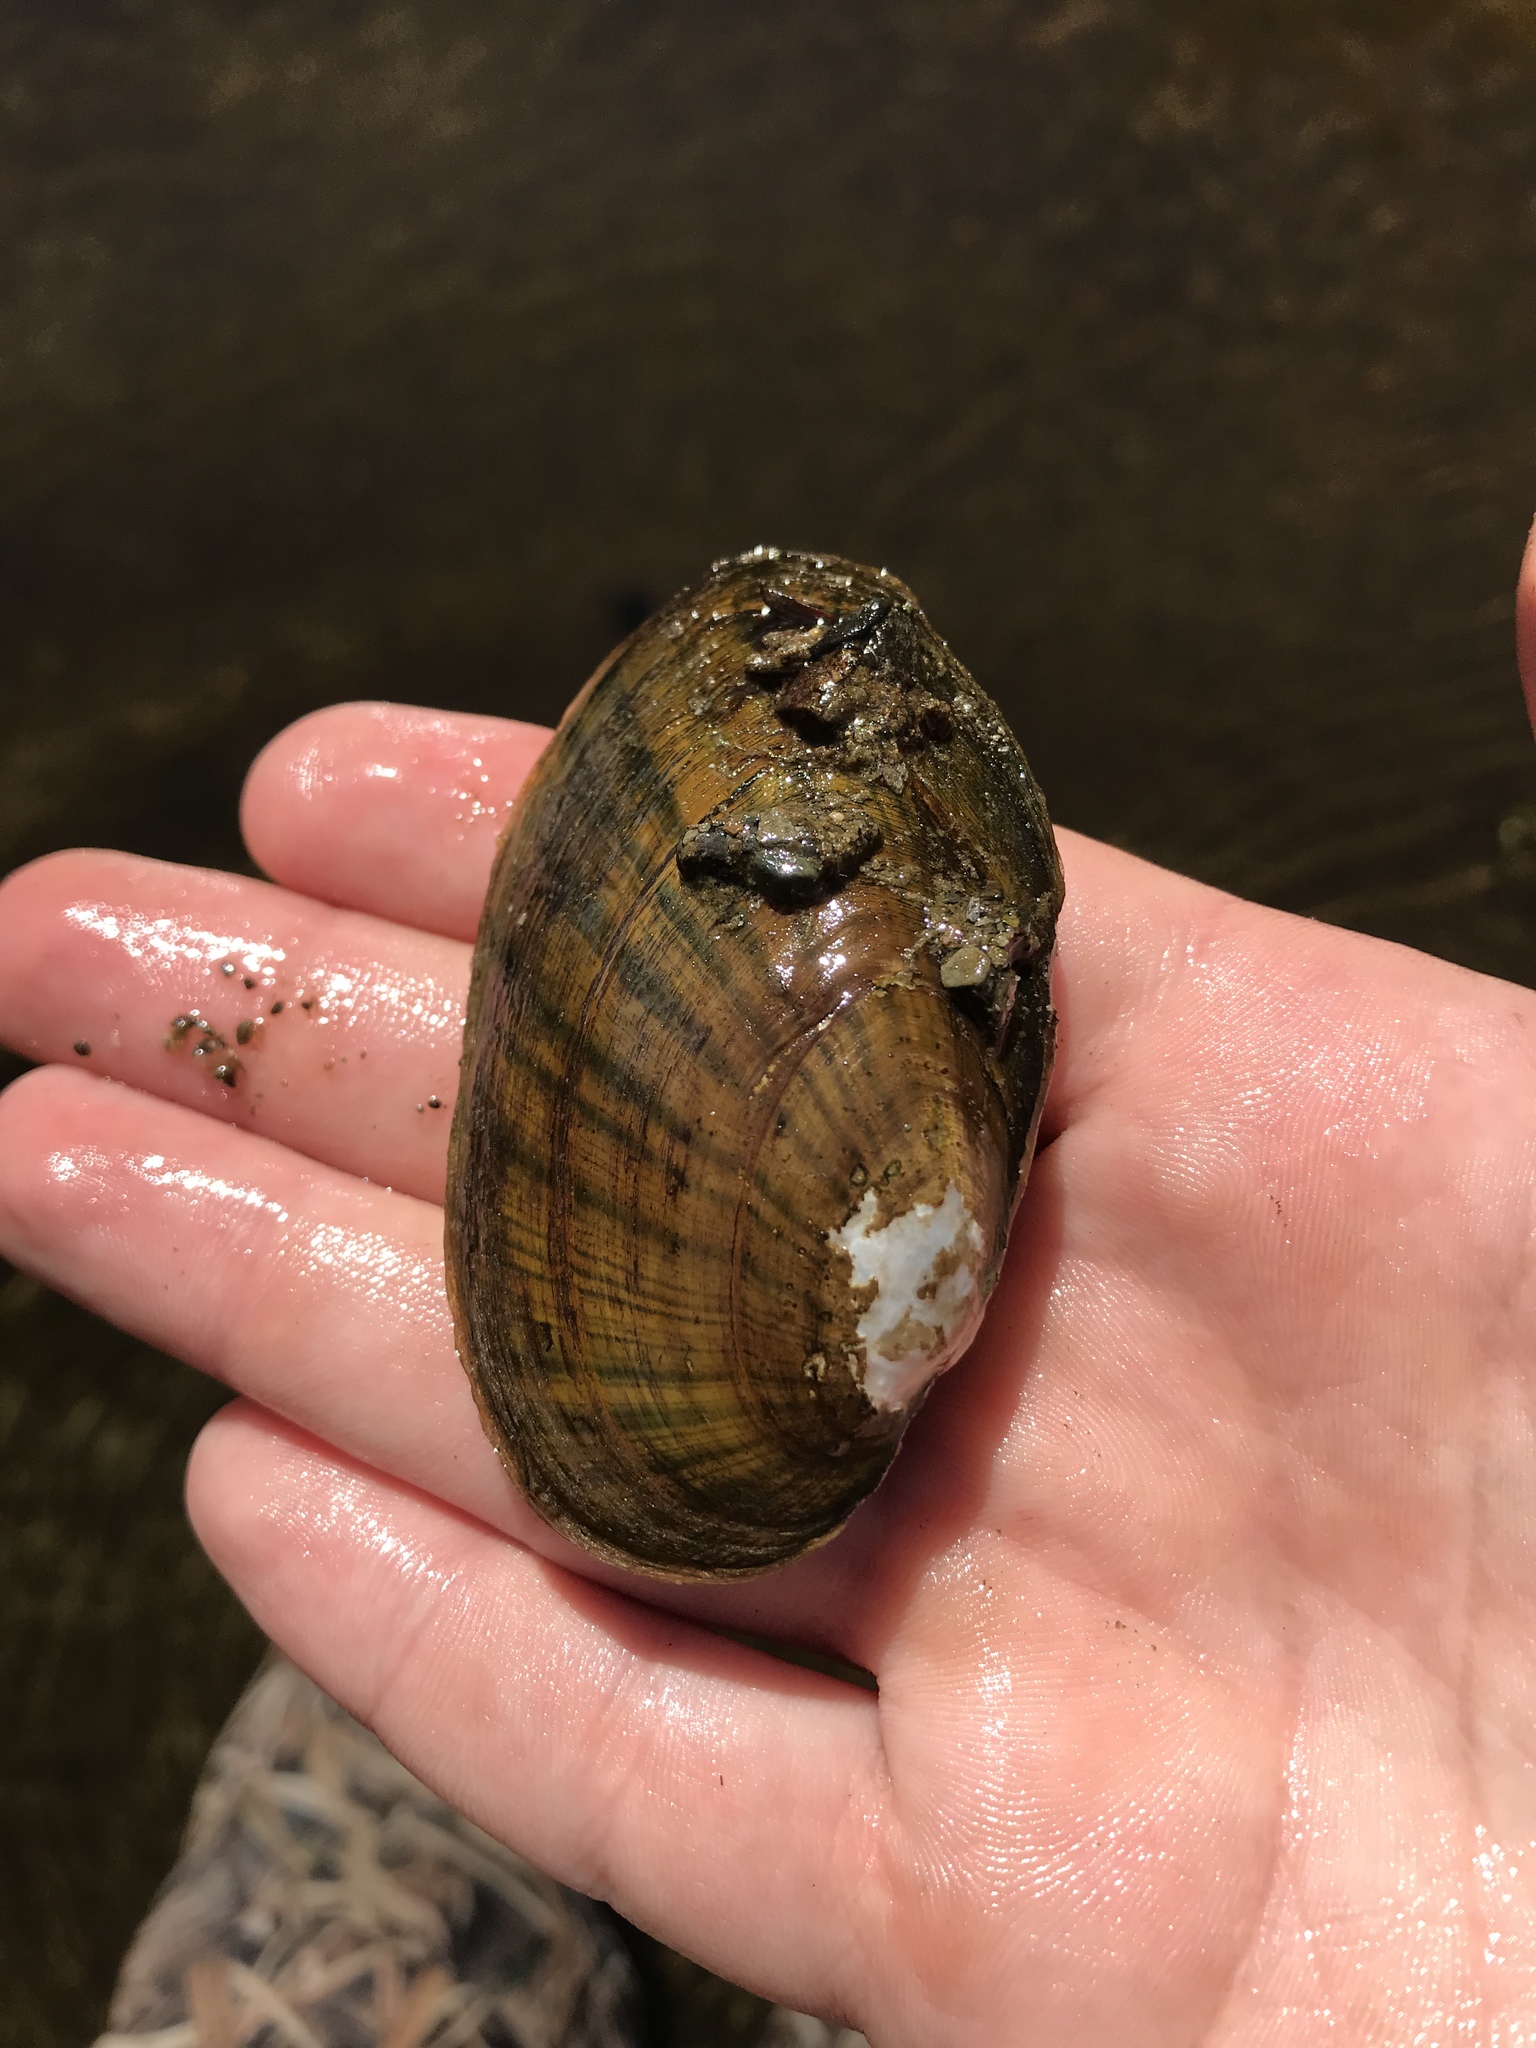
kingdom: Animalia
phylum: Mollusca
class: Bivalvia
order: Unionida
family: Unionidae
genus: Lampsilis
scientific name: Lampsilis radiata
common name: Eastern lampmussel
